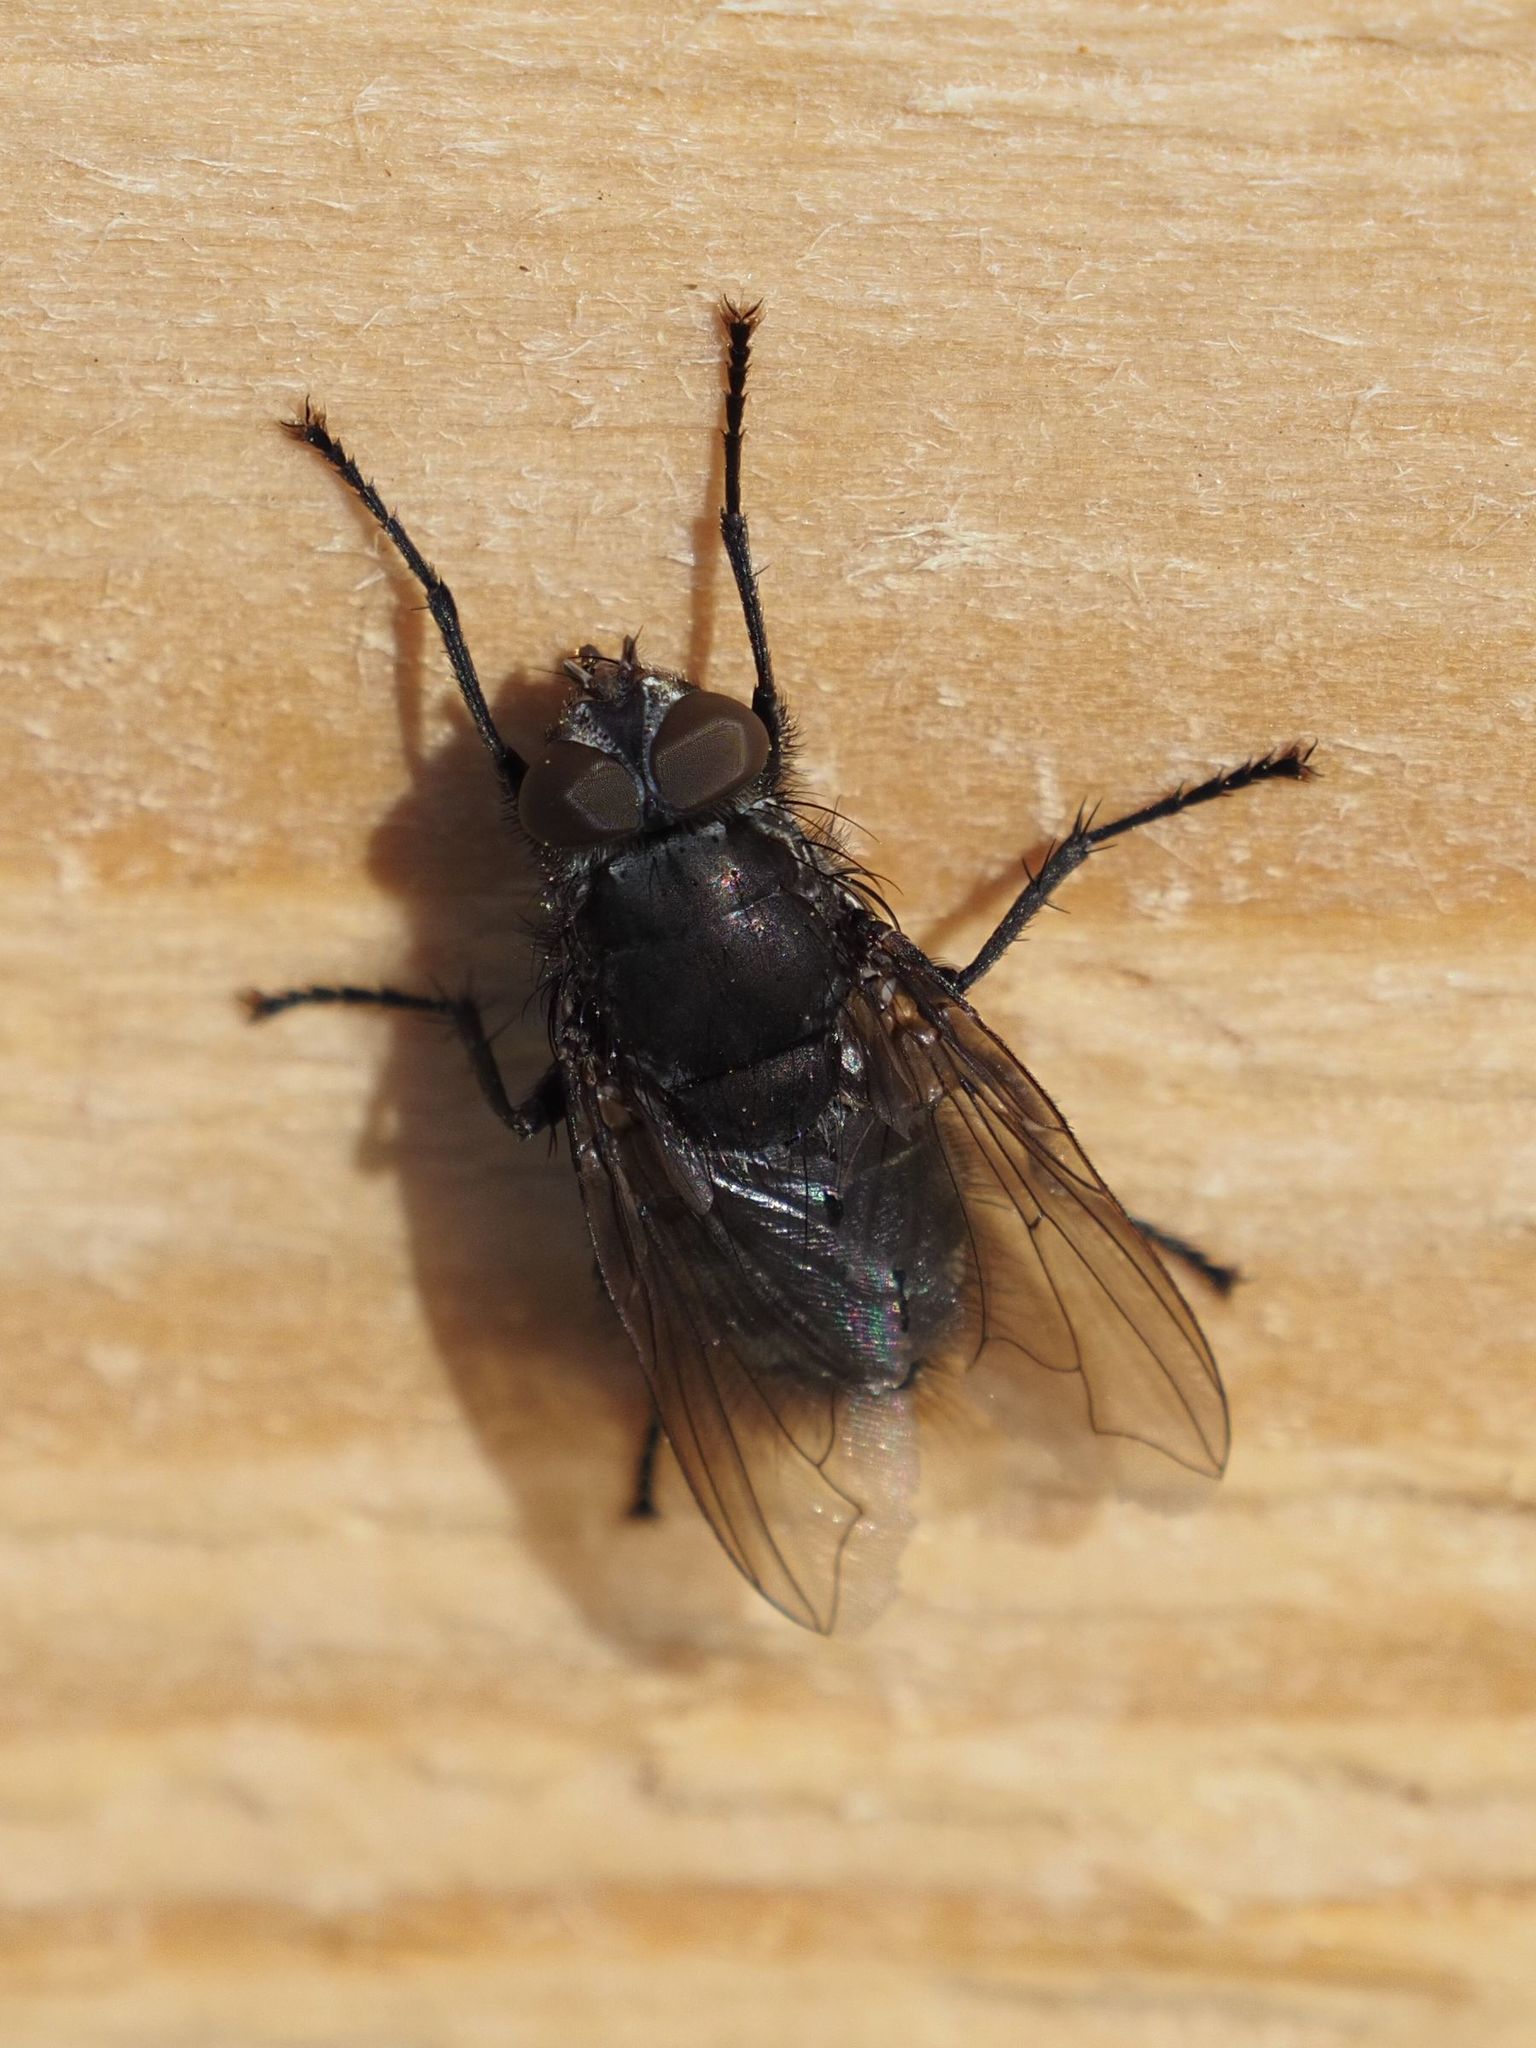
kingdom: Animalia
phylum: Arthropoda
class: Insecta
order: Diptera
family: Polleniidae
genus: Pollenia
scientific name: Pollenia vagabunda
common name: Vagabund cluster fly
